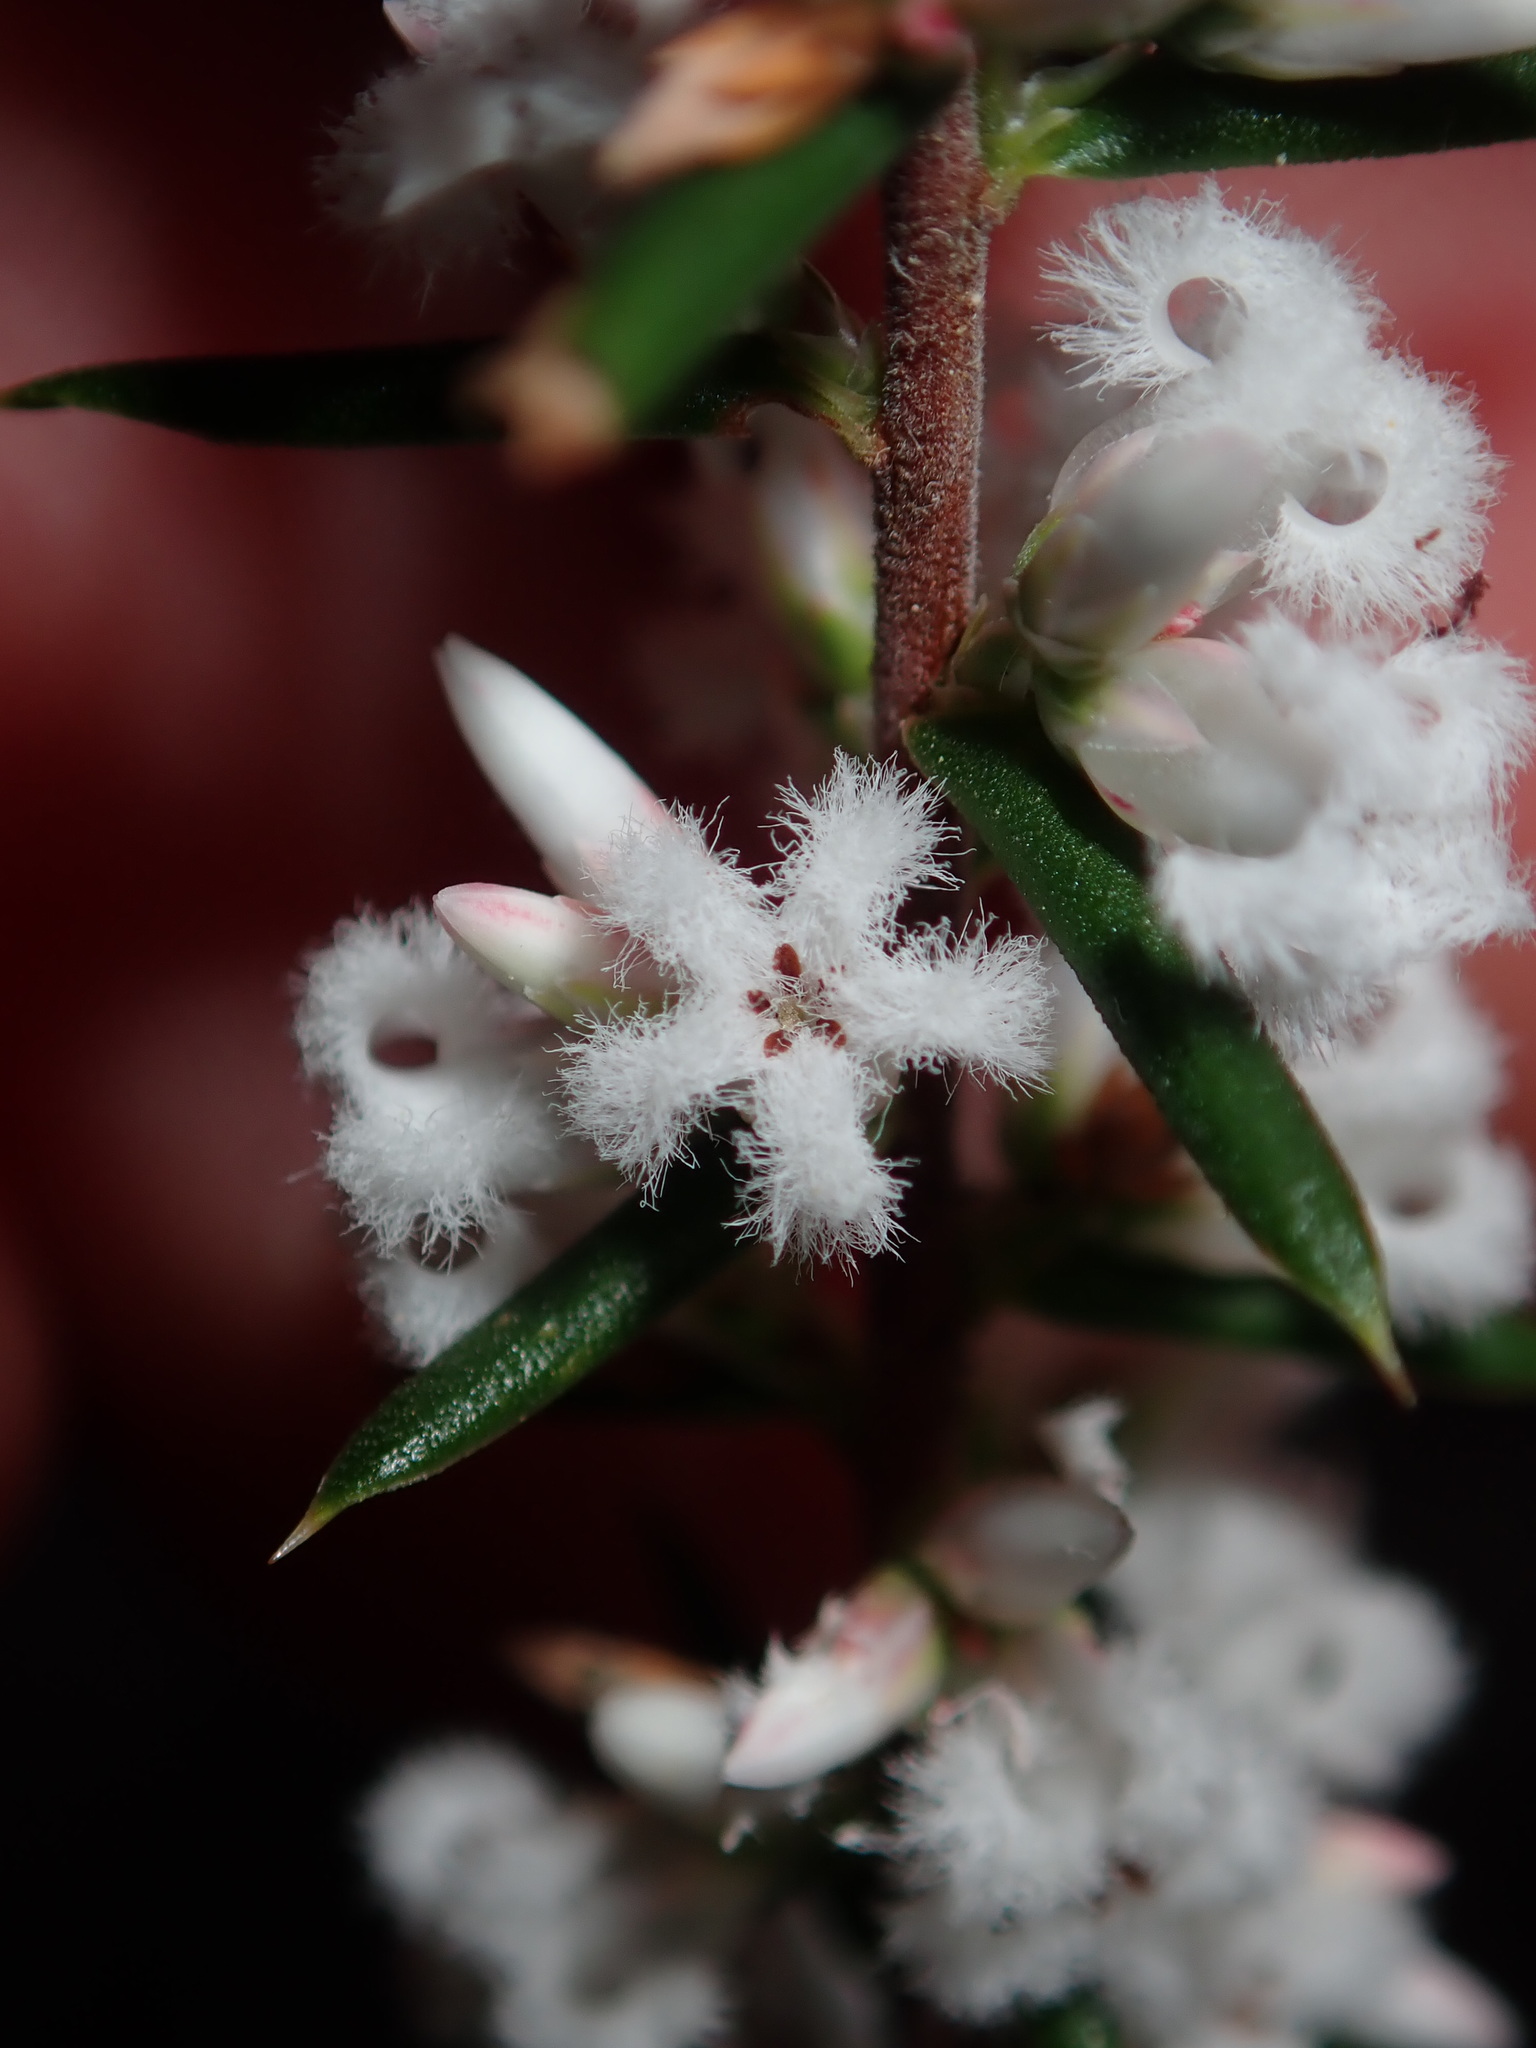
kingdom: Plantae
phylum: Tracheophyta
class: Magnoliopsida
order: Ericales
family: Ericaceae
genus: Styphelia
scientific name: Styphelia ericoides
